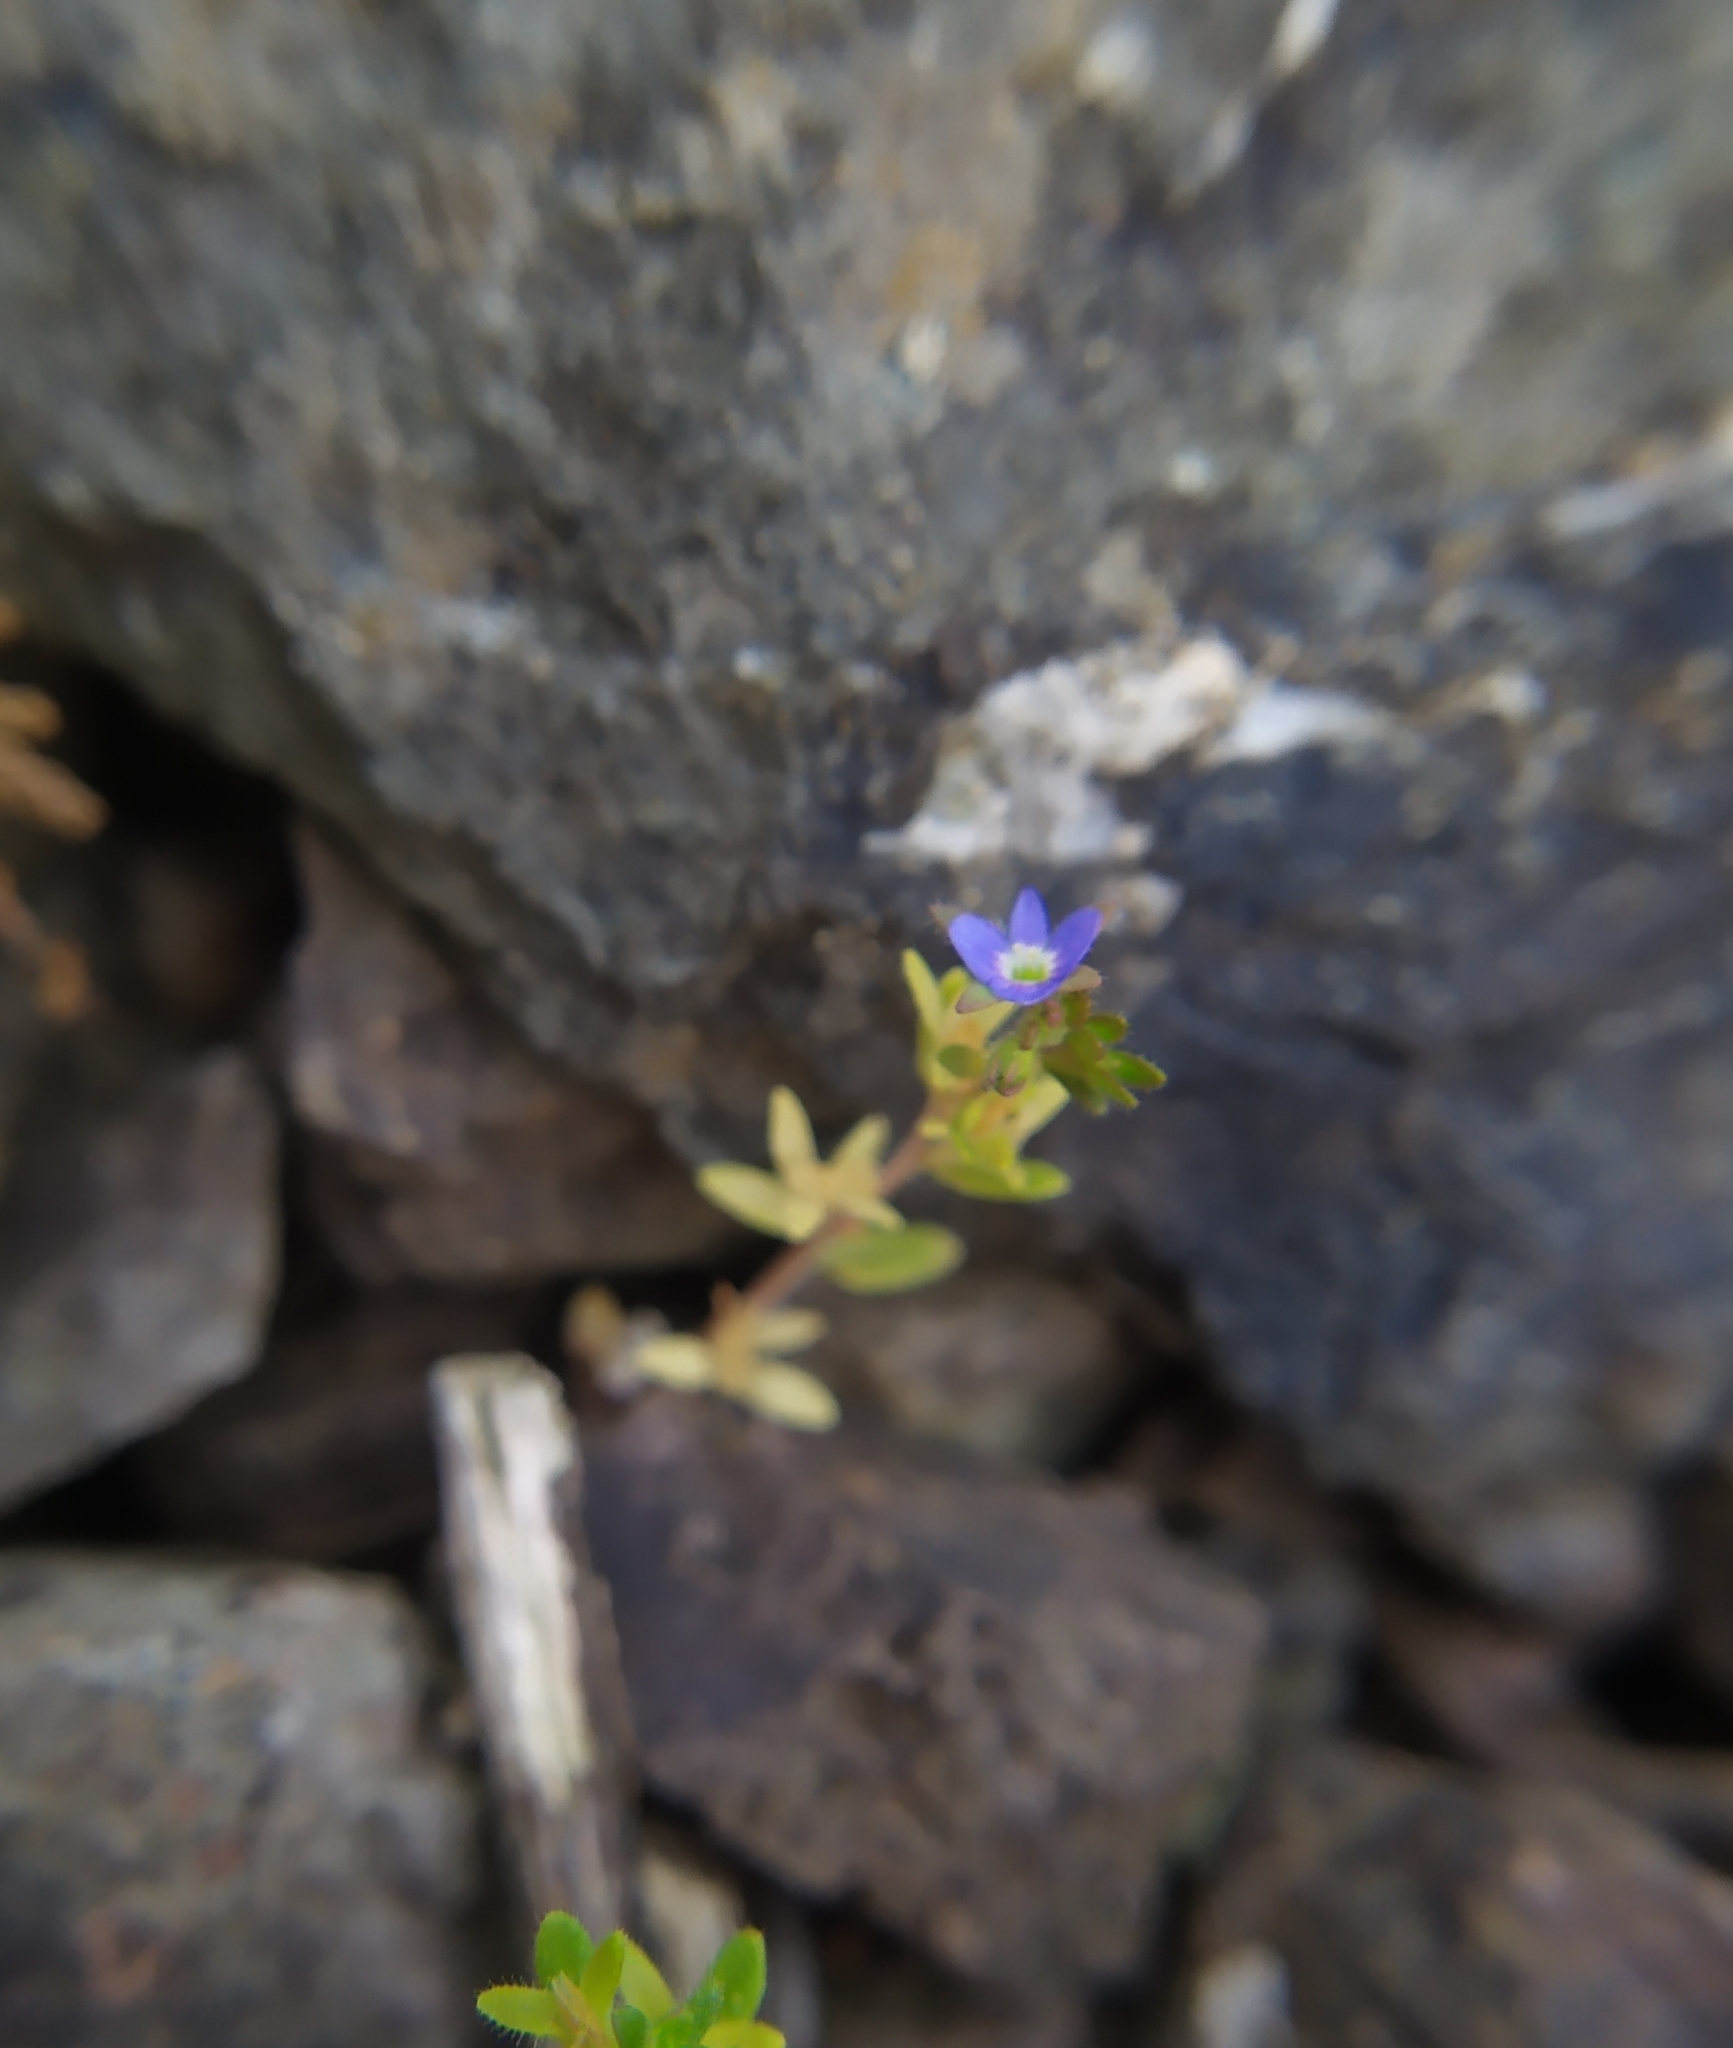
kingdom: Plantae
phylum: Tracheophyta
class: Magnoliopsida
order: Lamiales
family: Plantaginaceae
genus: Veronica
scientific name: Veronica arvensis
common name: Corn speedwell
